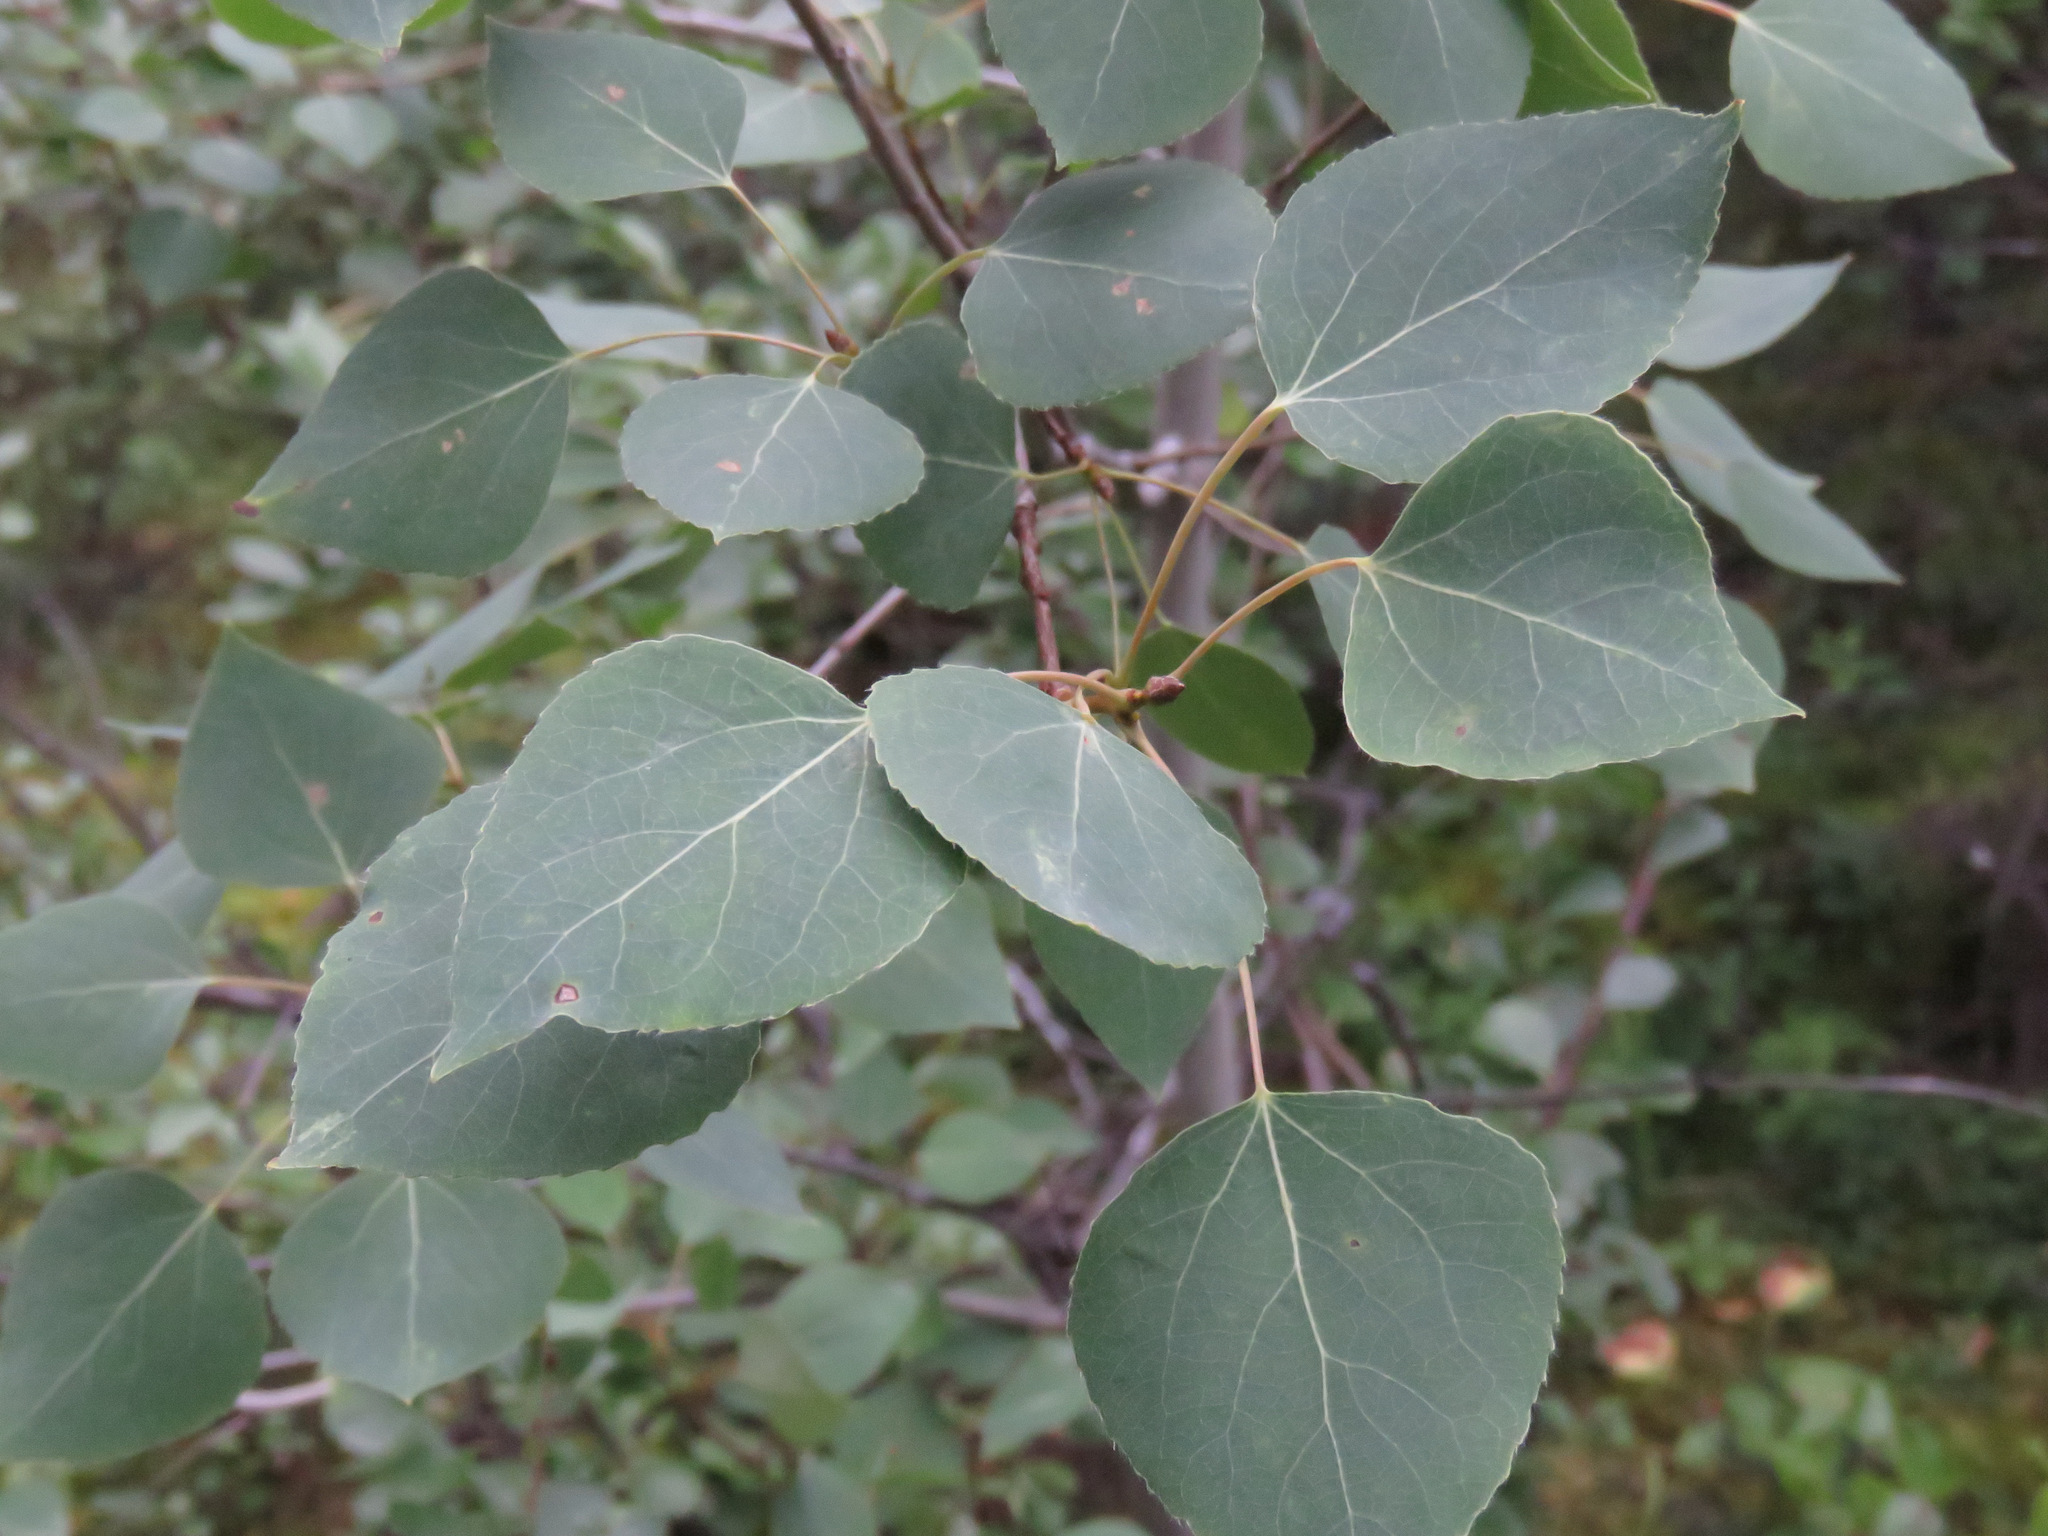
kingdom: Plantae
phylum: Tracheophyta
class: Magnoliopsida
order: Malpighiales
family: Salicaceae
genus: Populus
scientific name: Populus tremuloides
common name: Quaking aspen
